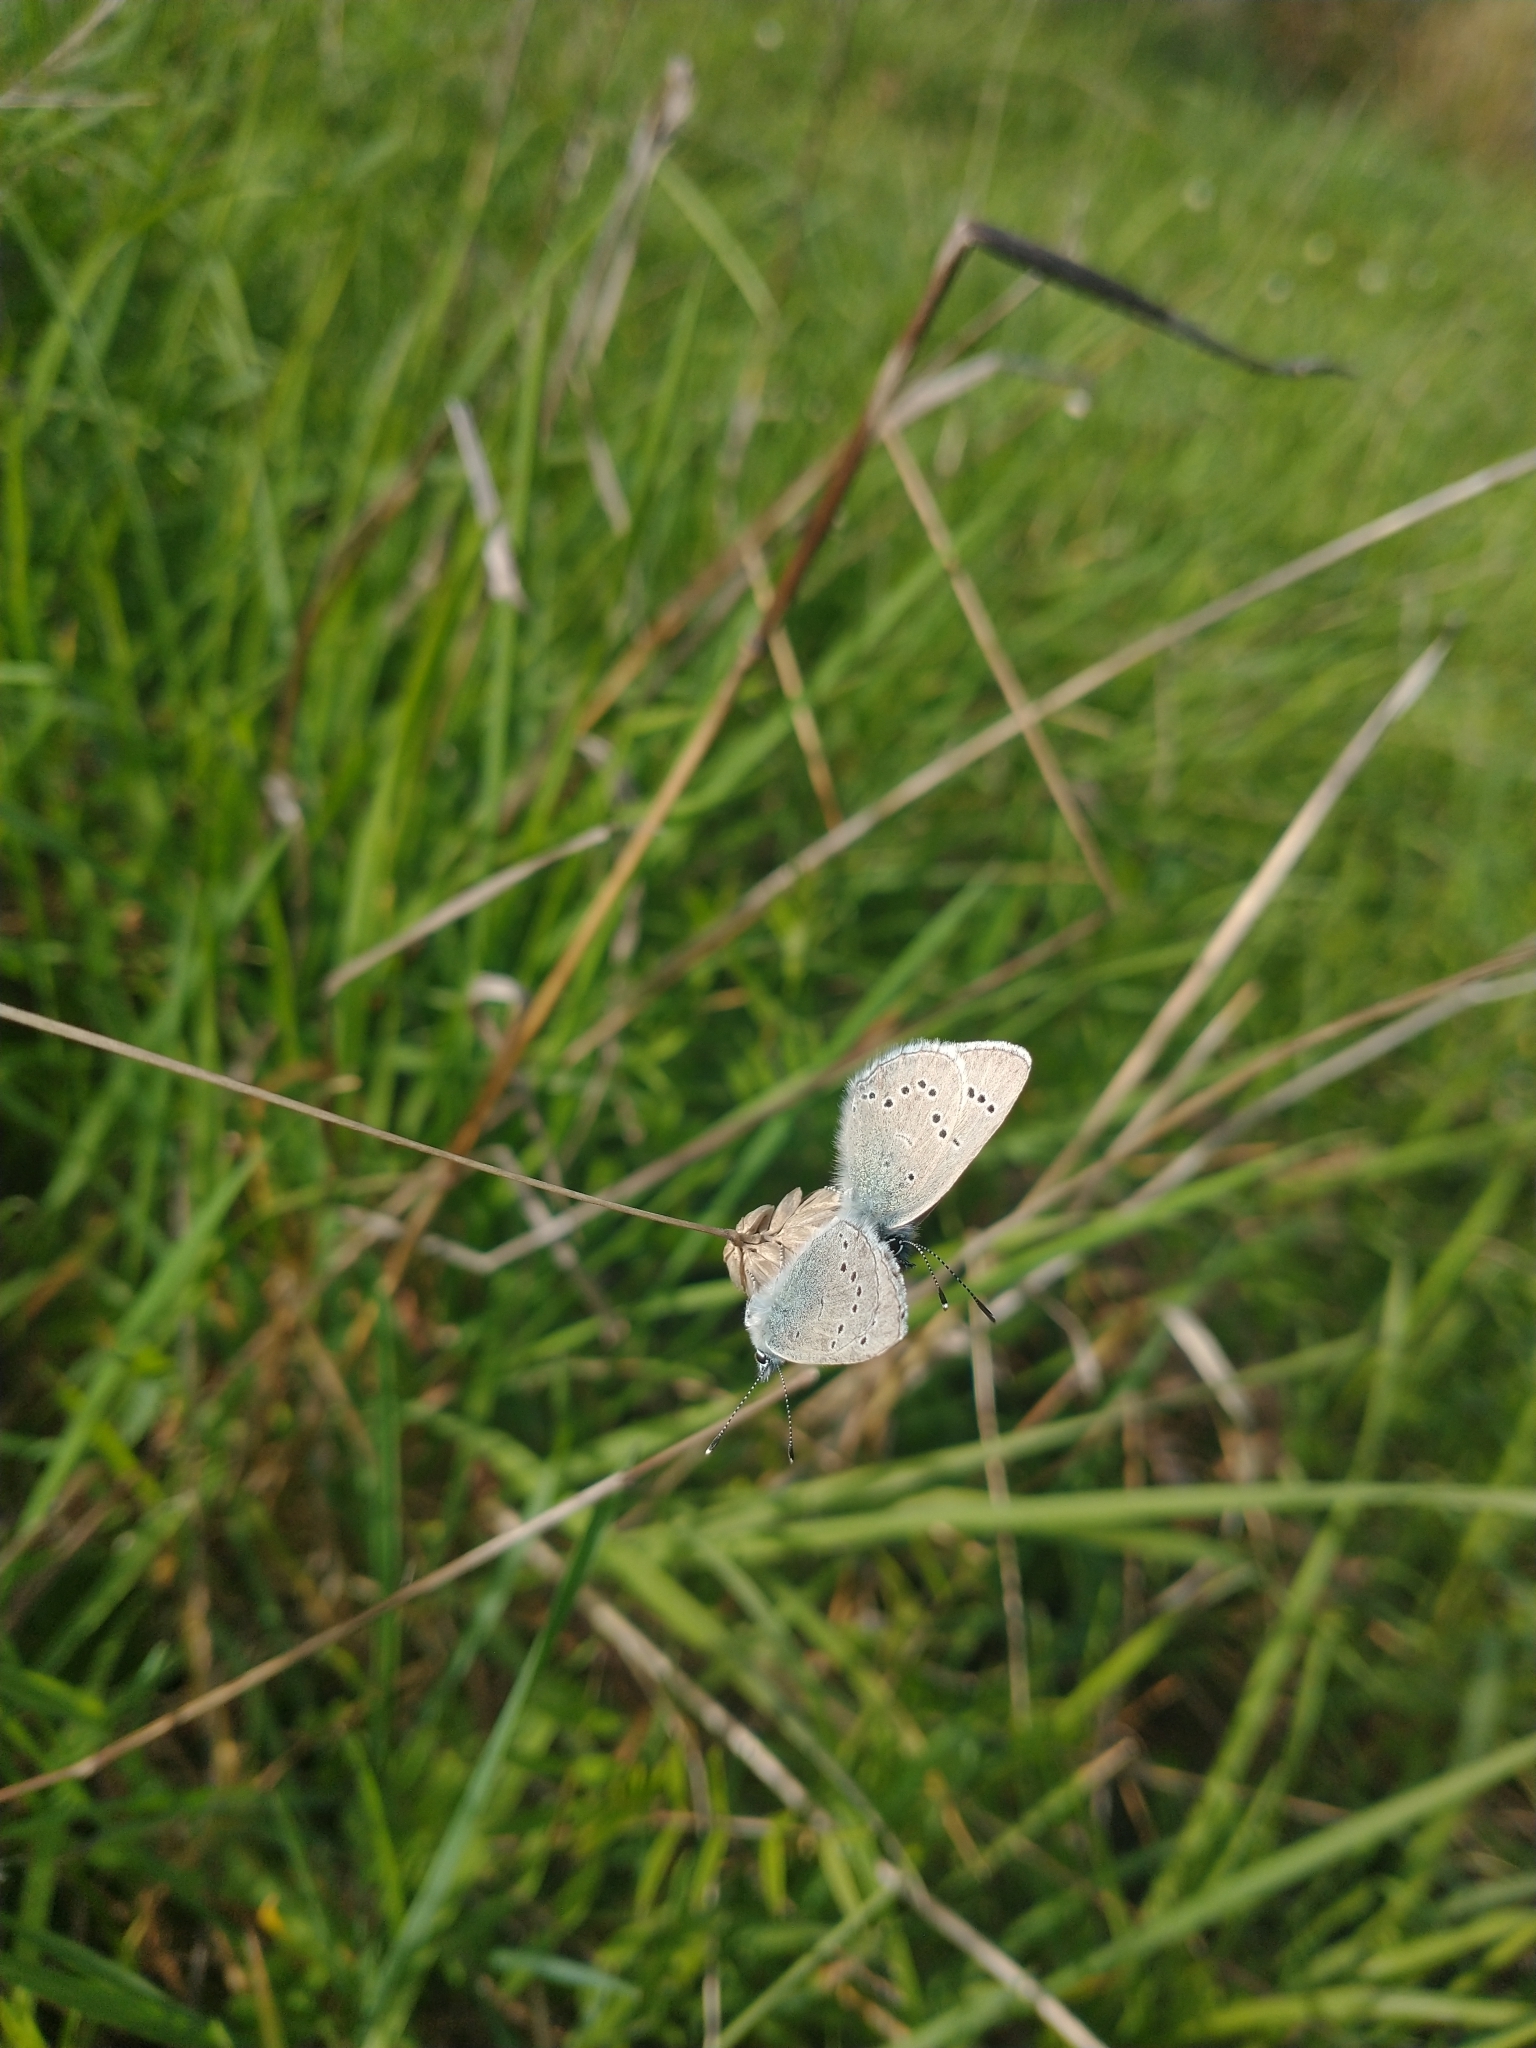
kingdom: Animalia
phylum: Arthropoda
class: Insecta
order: Lepidoptera
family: Lycaenidae
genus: Glaucopsyche
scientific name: Glaucopsyche lygdamus
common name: Silvery blue
